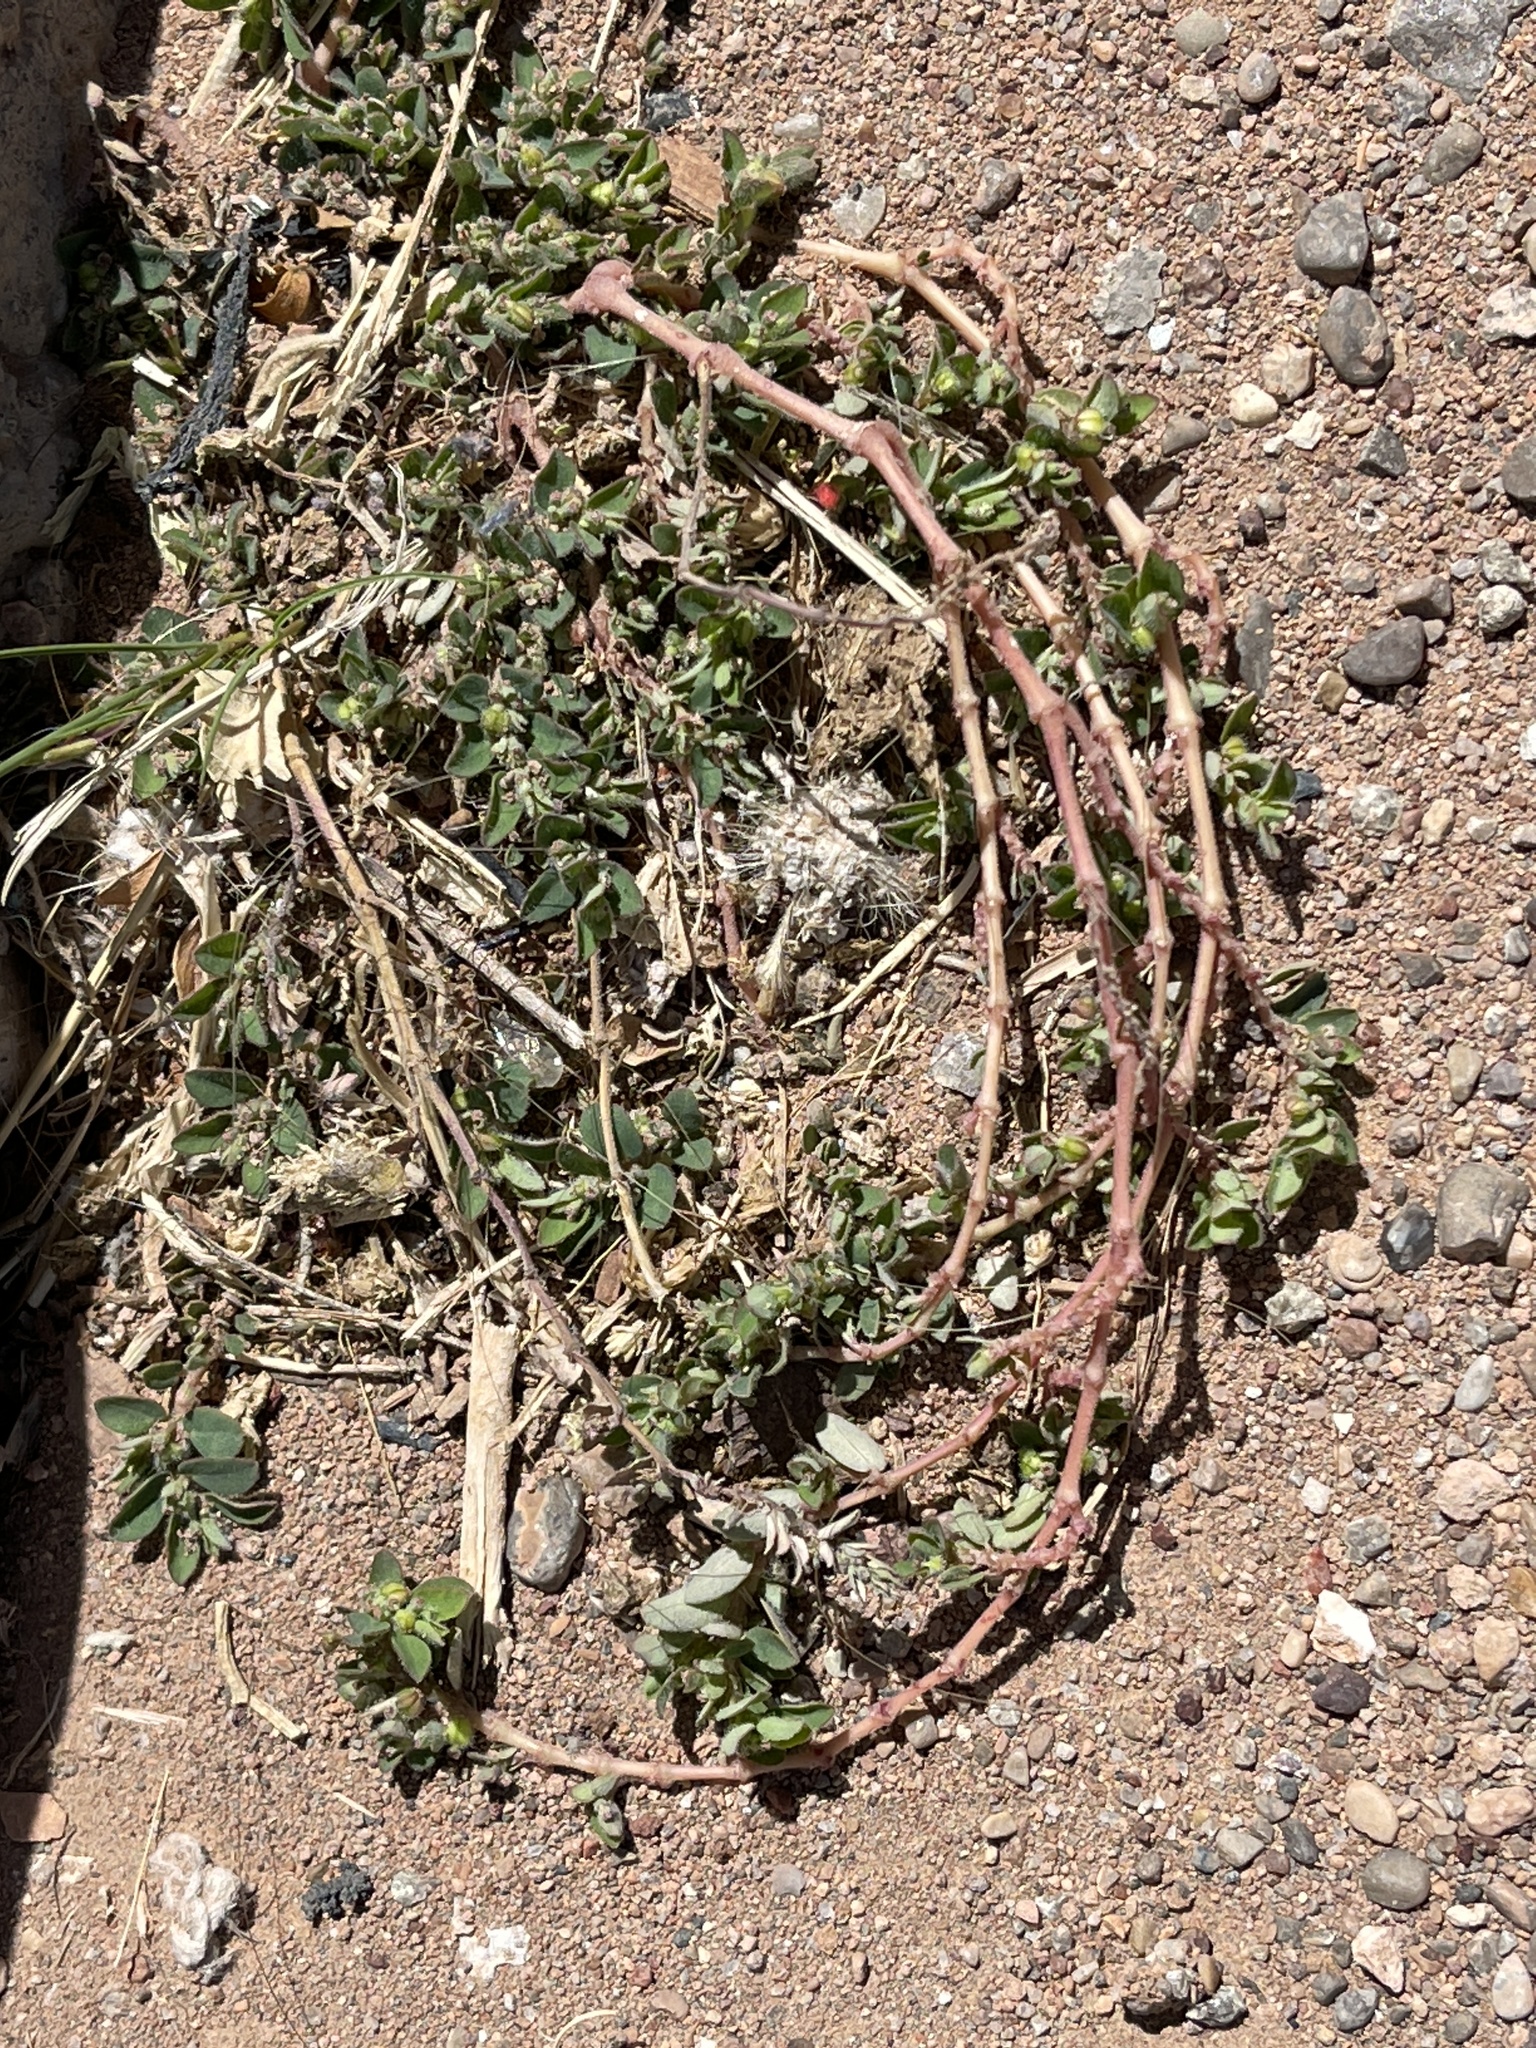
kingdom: Plantae
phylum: Tracheophyta
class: Magnoliopsida
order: Malpighiales
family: Euphorbiaceae
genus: Euphorbia
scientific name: Euphorbia prostrata
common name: Prostrate sandmat
